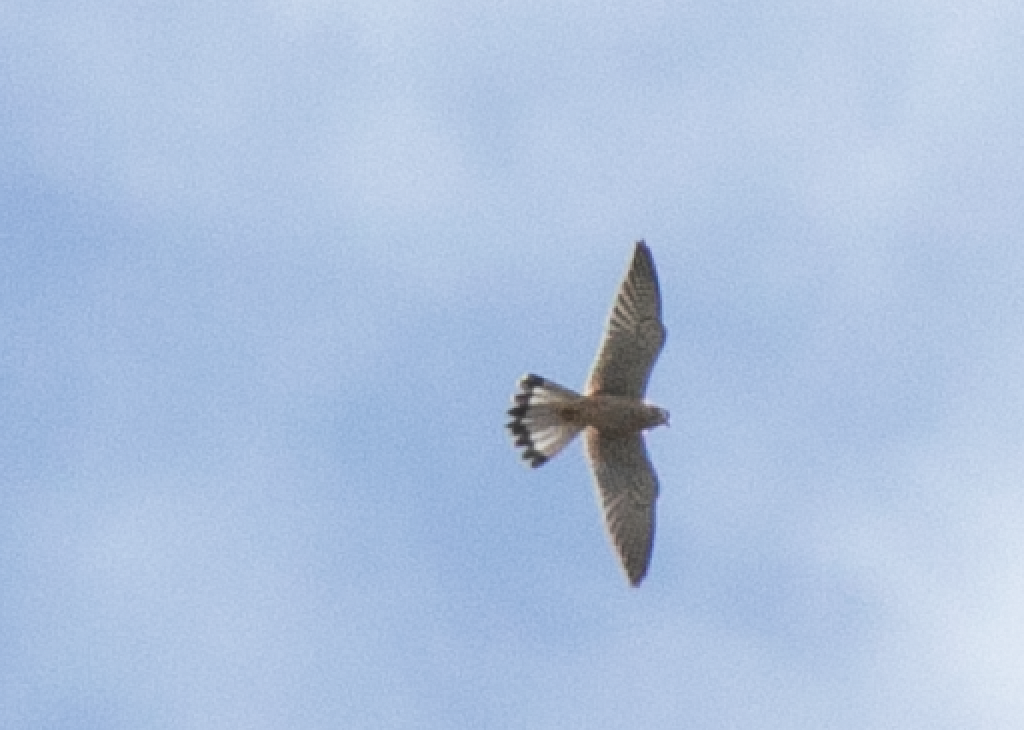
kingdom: Animalia
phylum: Chordata
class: Aves
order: Falconiformes
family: Falconidae
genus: Falco
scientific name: Falco tinnunculus
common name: Common kestrel
